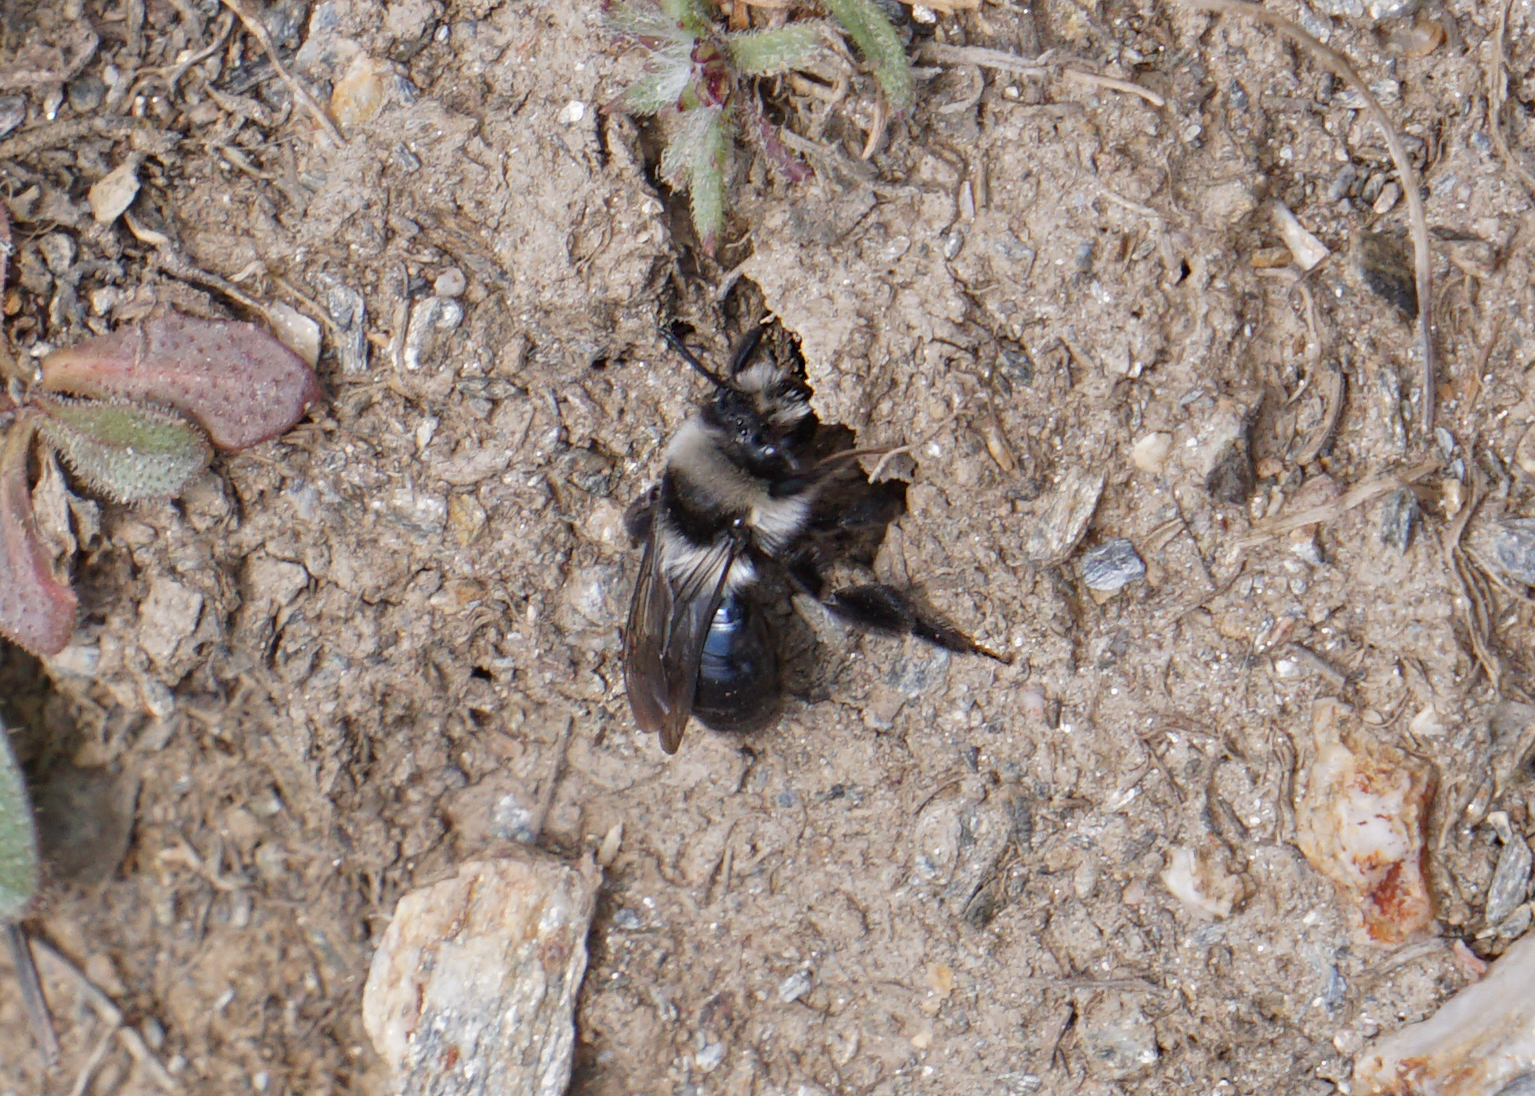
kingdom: Animalia
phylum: Arthropoda
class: Insecta
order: Hymenoptera
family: Andrenidae
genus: Andrena
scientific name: Andrena cineraria
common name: Ashy mining bee
